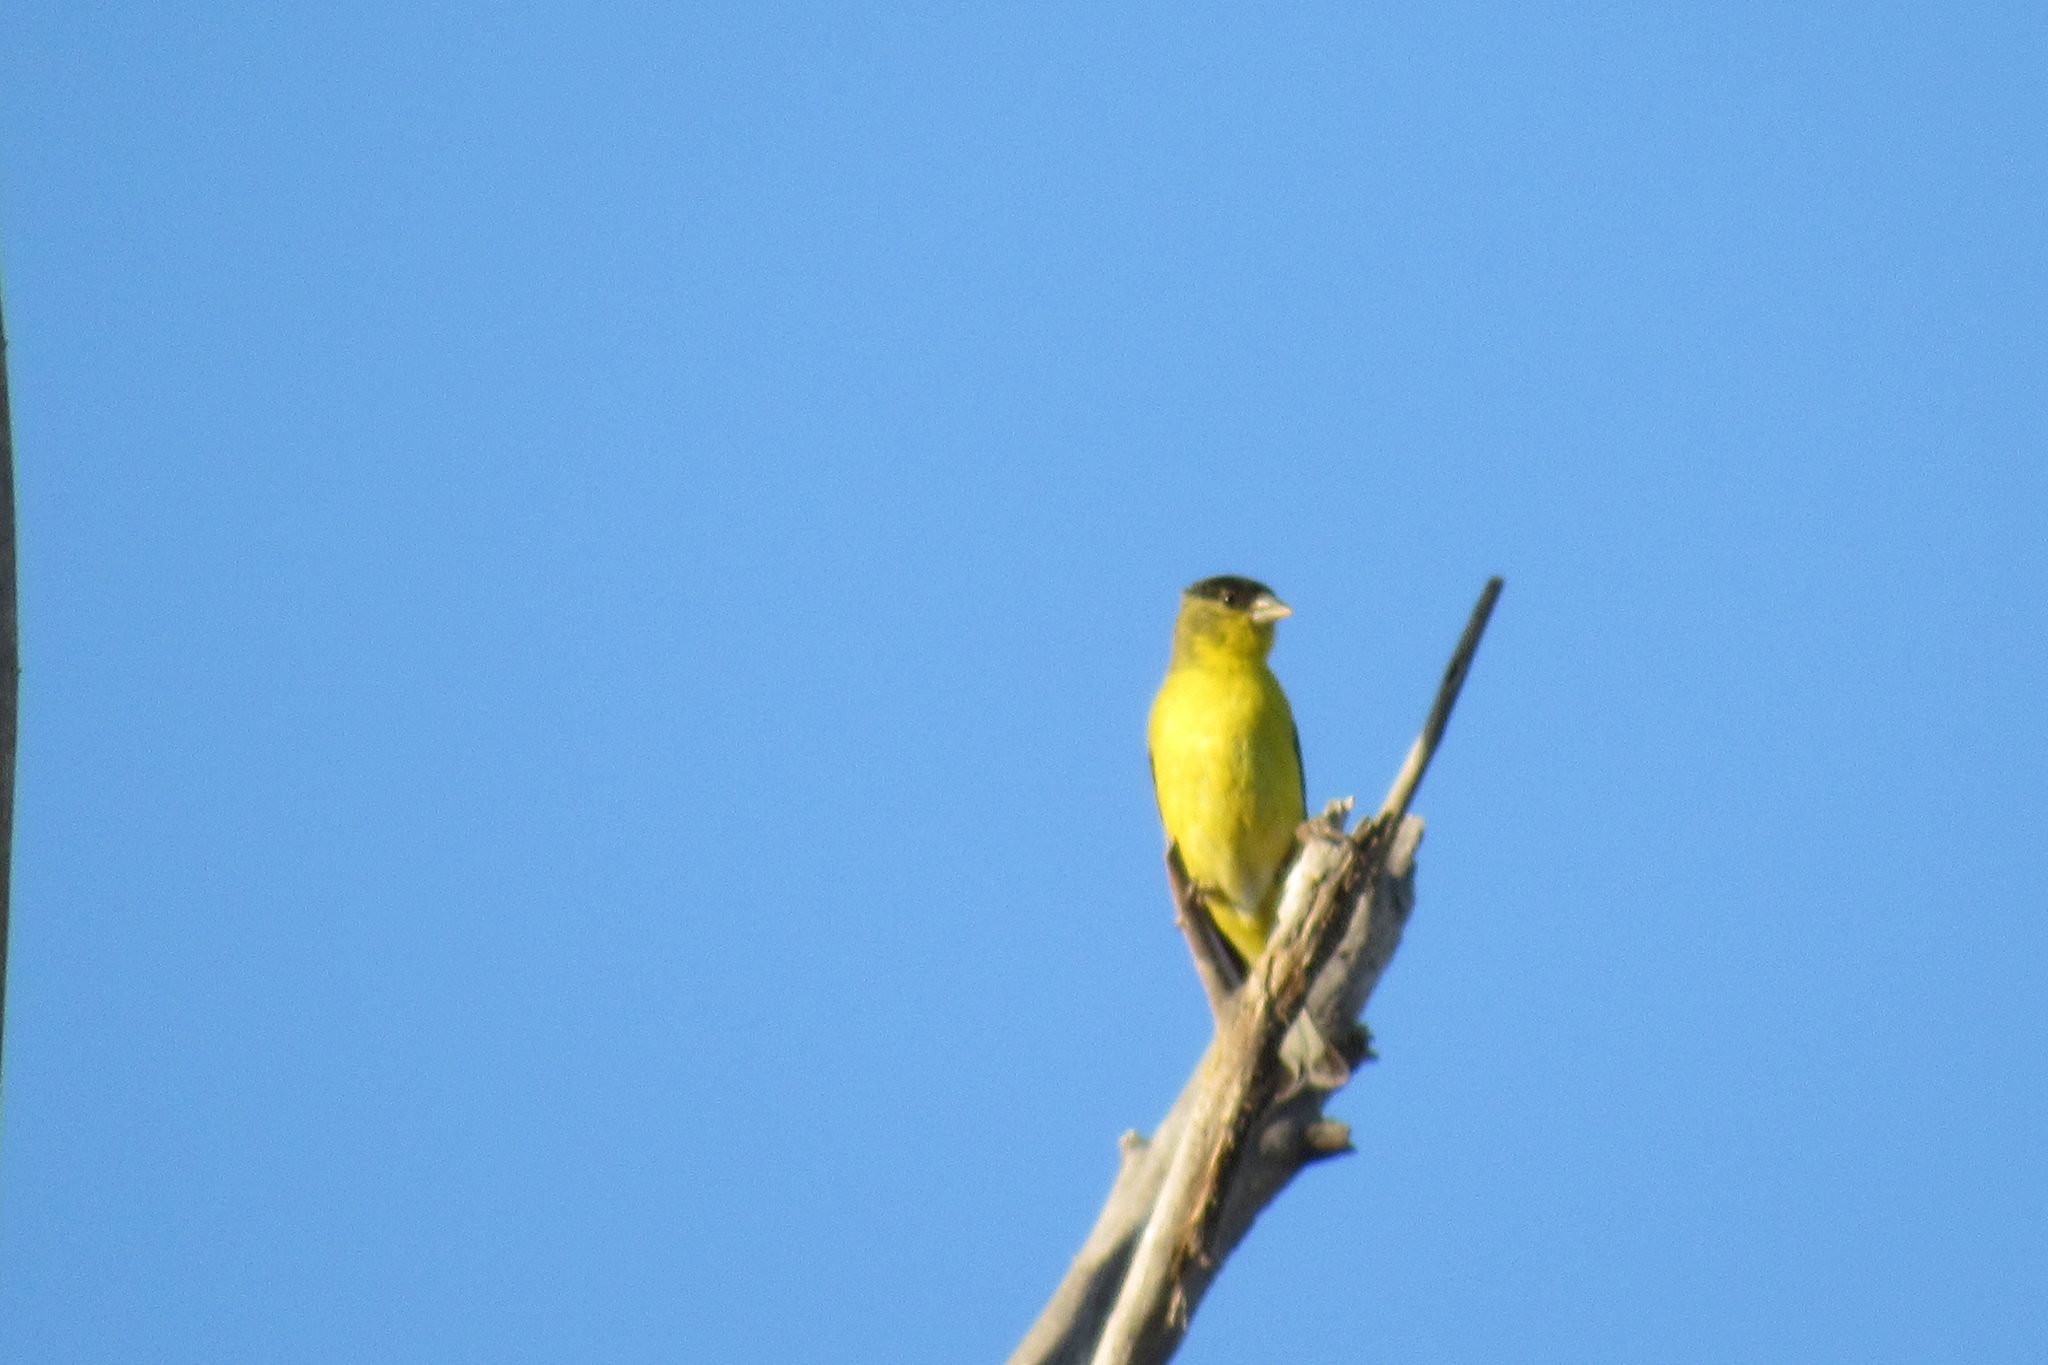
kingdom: Animalia
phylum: Chordata
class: Aves
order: Passeriformes
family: Fringillidae
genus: Spinus
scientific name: Spinus psaltria
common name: Lesser goldfinch
